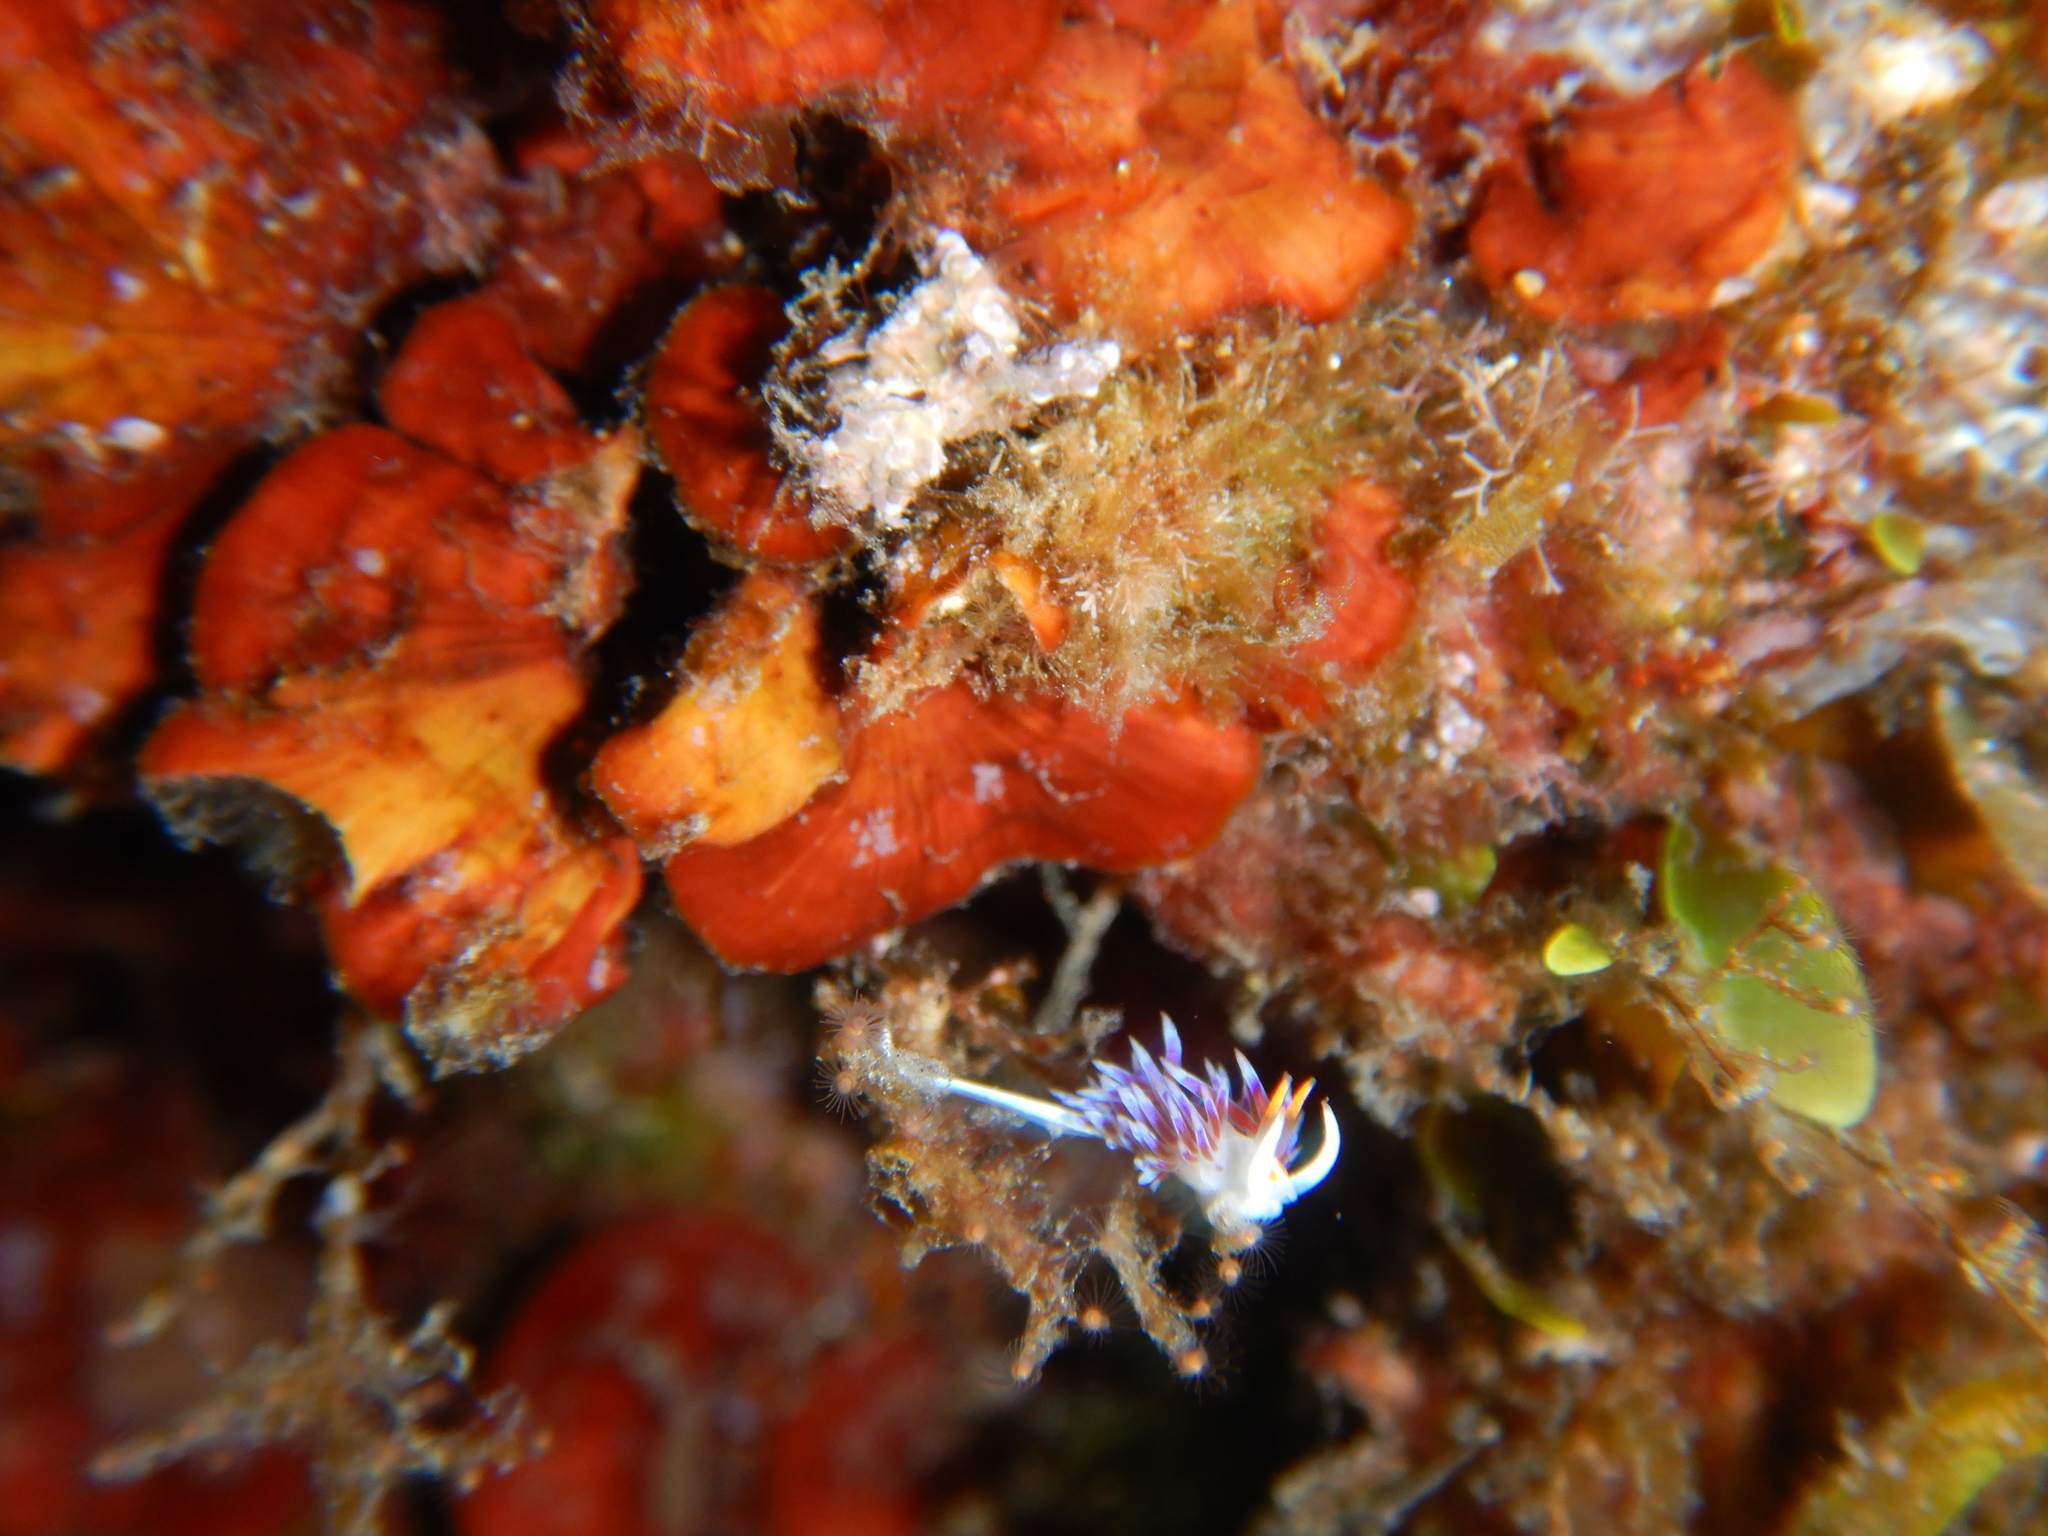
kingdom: Animalia
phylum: Mollusca
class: Gastropoda
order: Nudibranchia
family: Facelinidae
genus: Cratena
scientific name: Cratena peregrina
